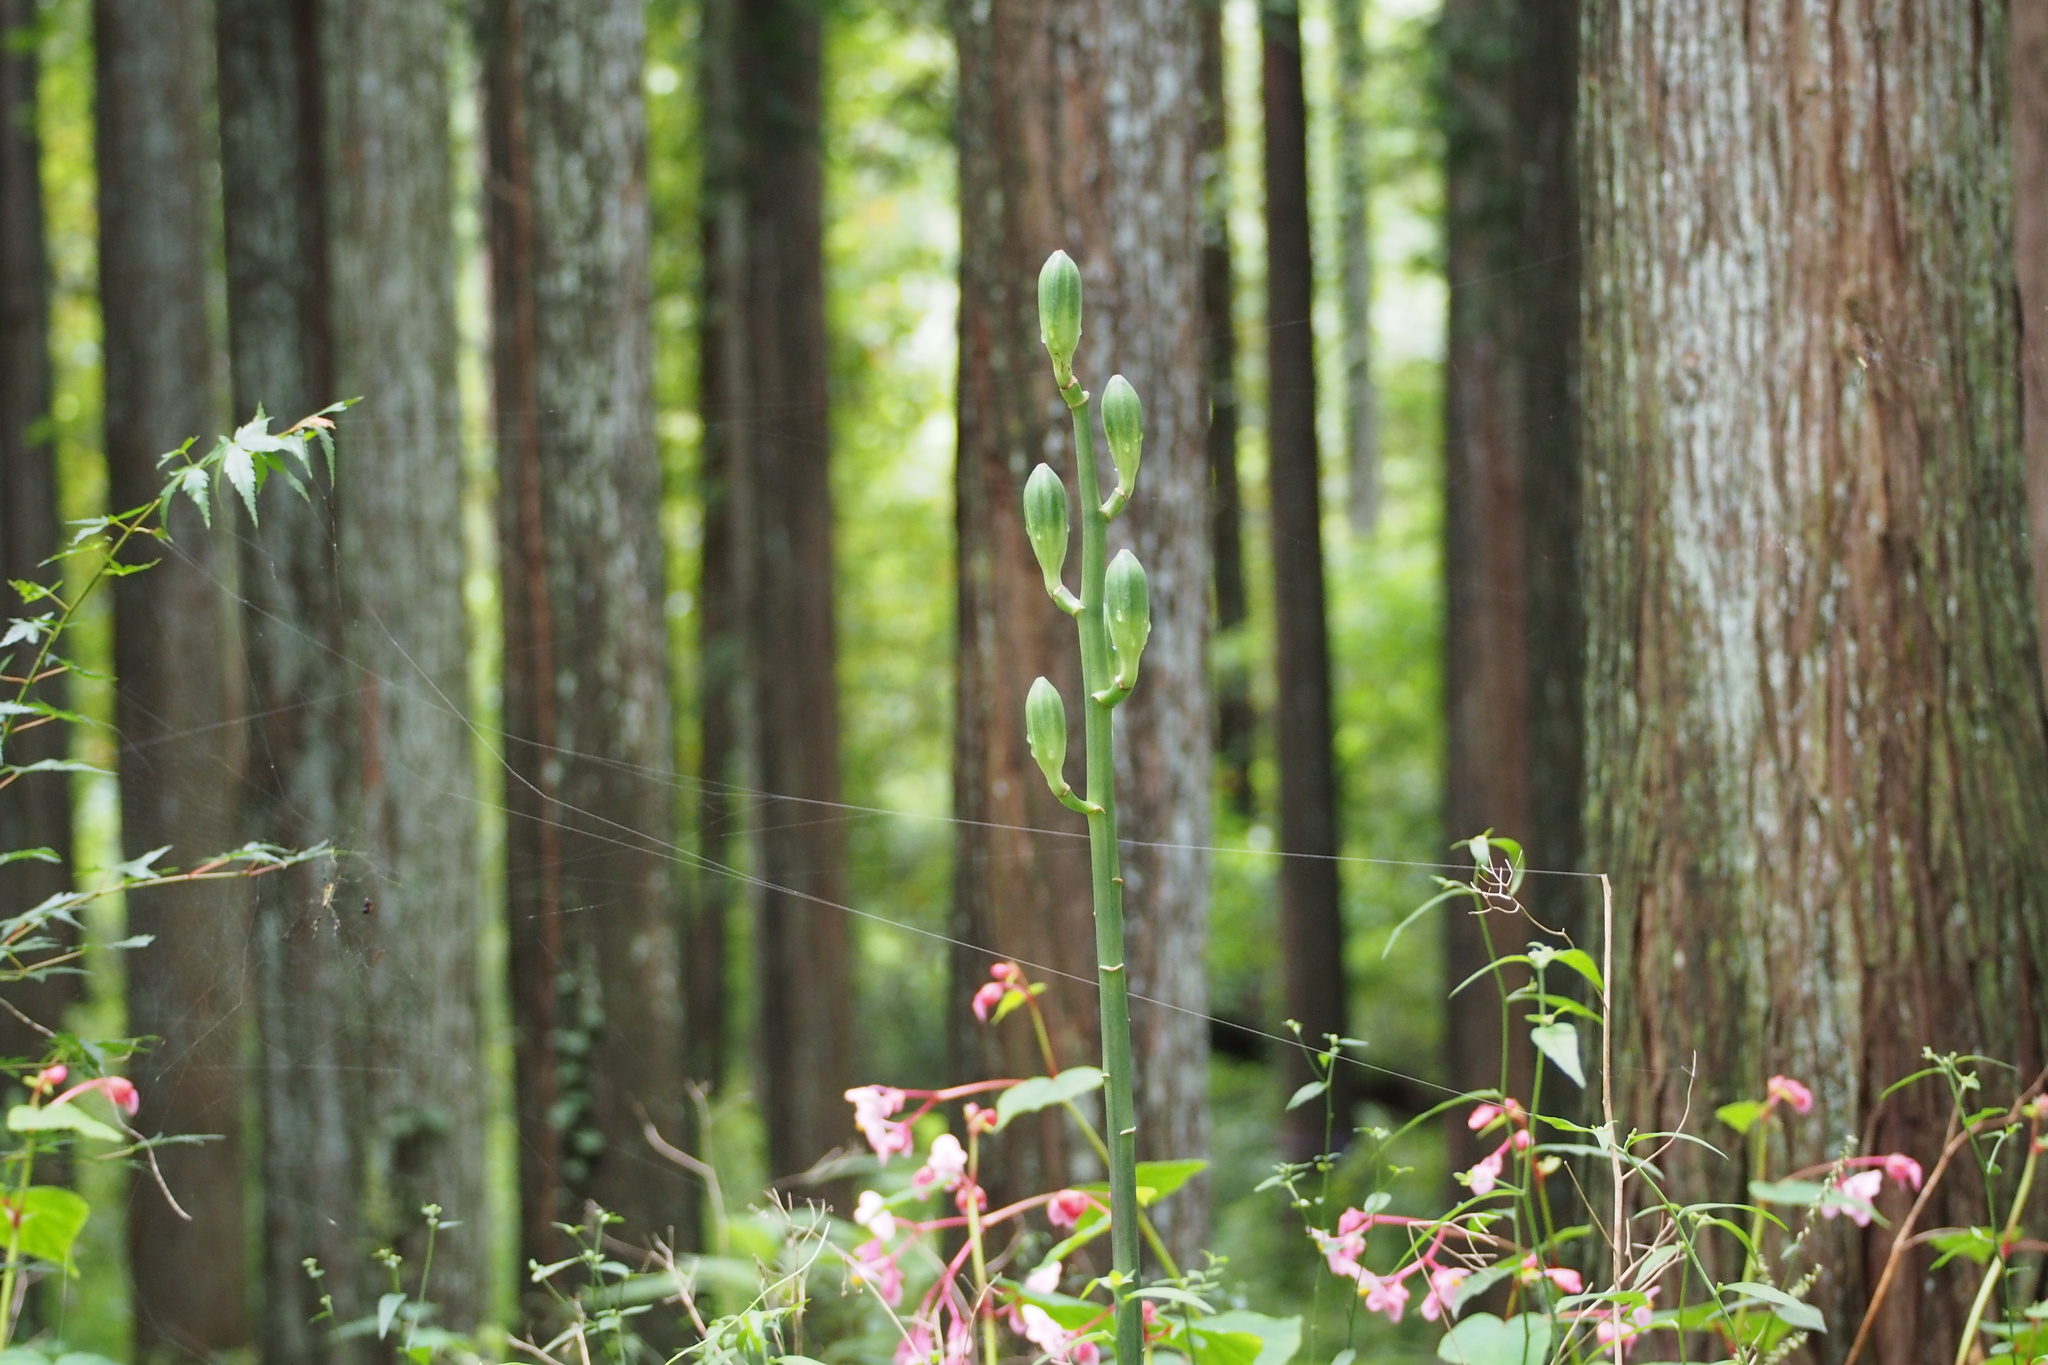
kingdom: Plantae
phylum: Tracheophyta
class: Liliopsida
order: Liliales
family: Liliaceae
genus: Cardiocrinum
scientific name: Cardiocrinum cordatum
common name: Lily
